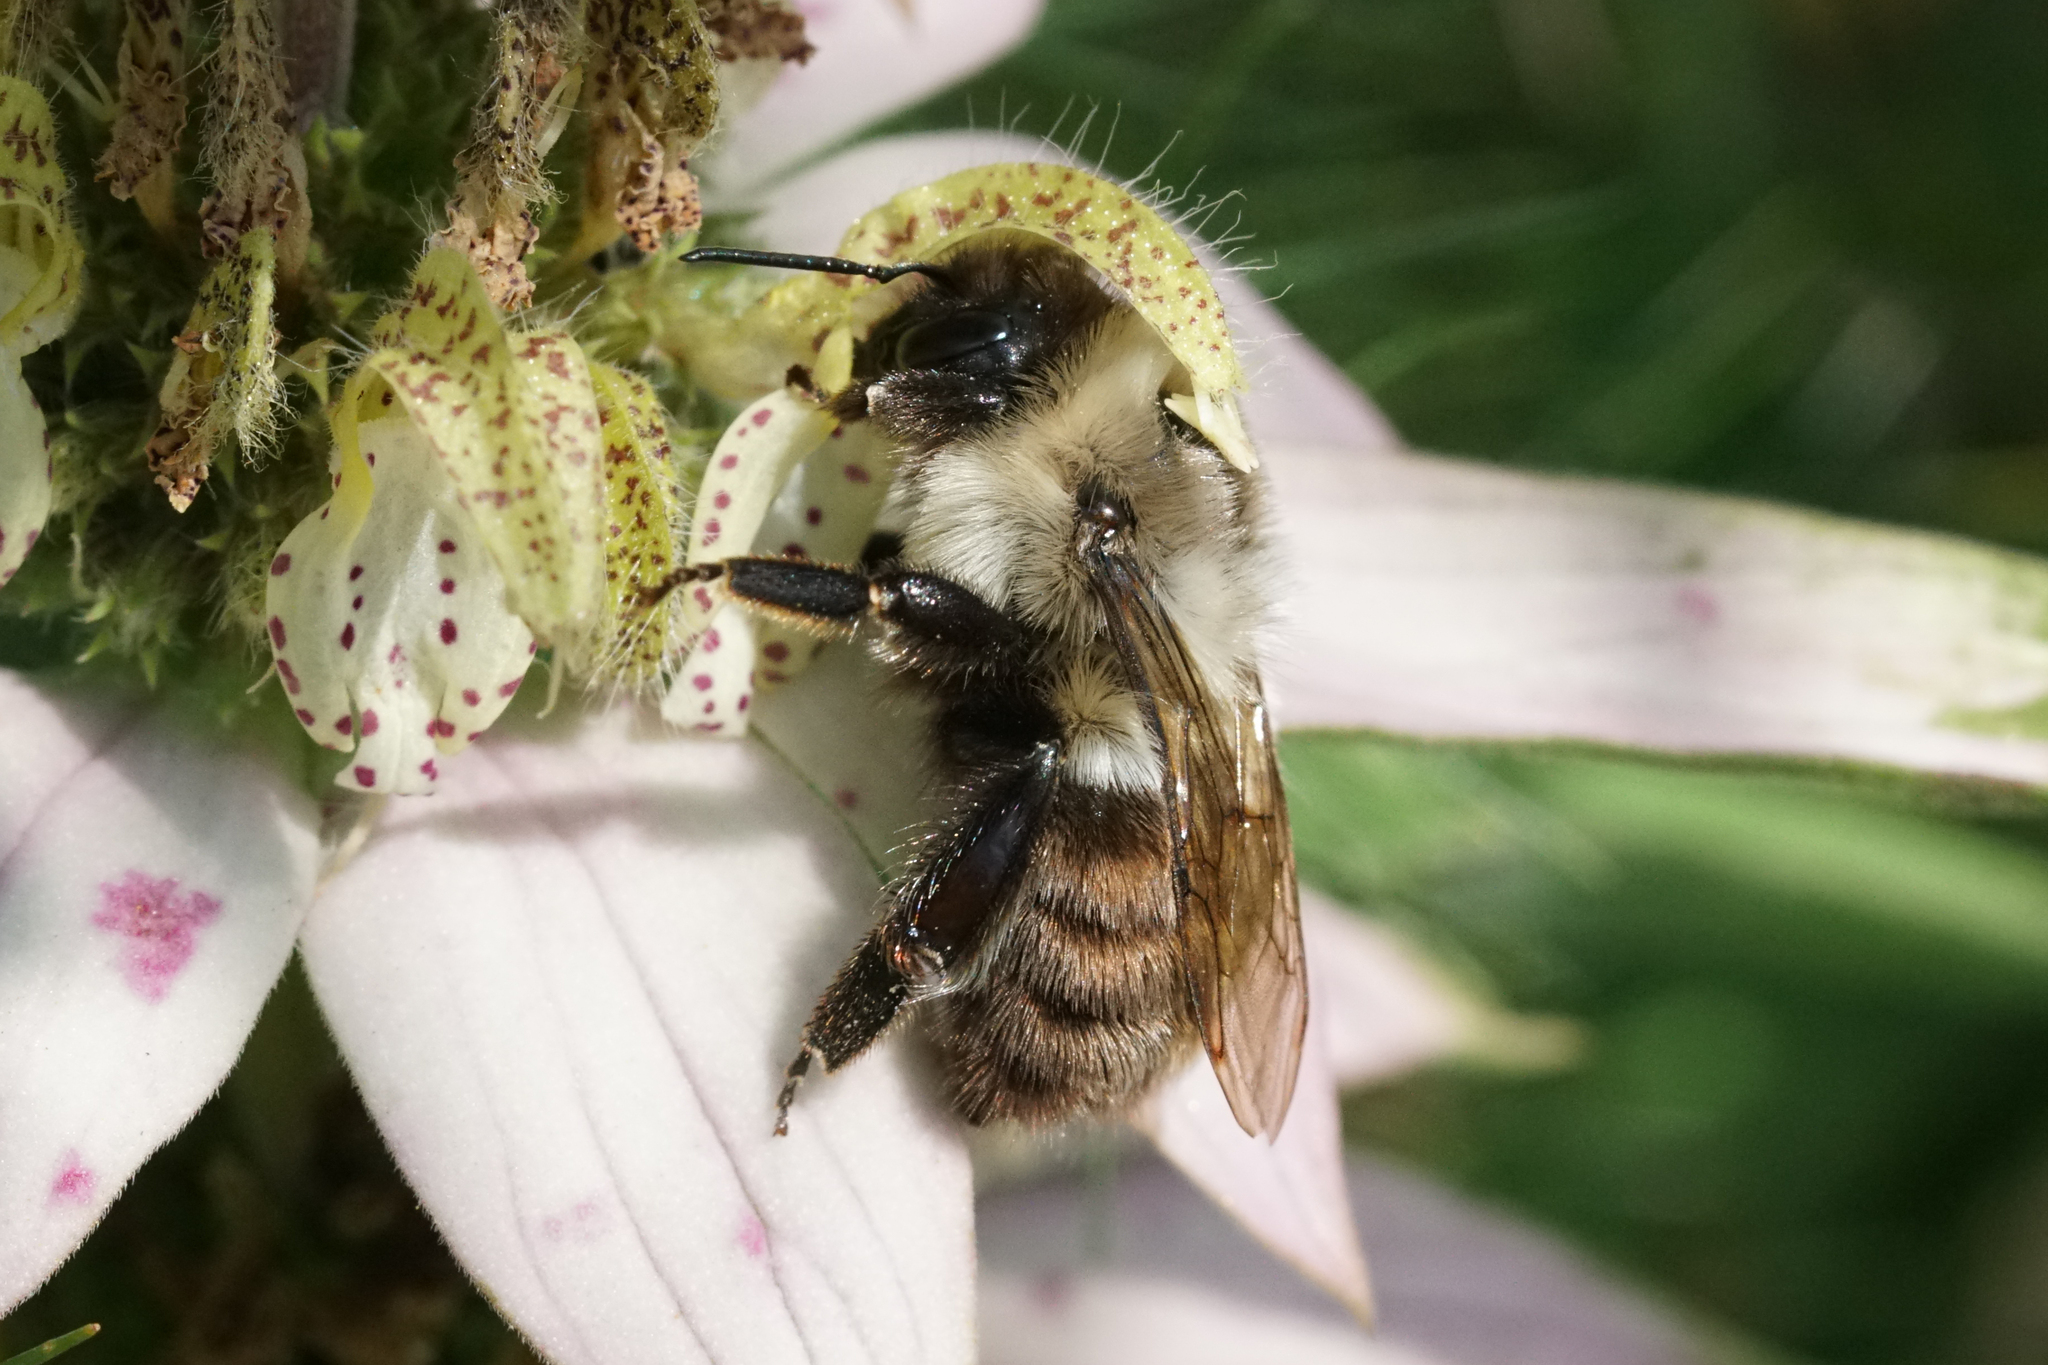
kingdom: Animalia
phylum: Arthropoda
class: Insecta
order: Hymenoptera
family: Apidae
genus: Bombus
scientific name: Bombus impatiens
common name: Common eastern bumble bee
